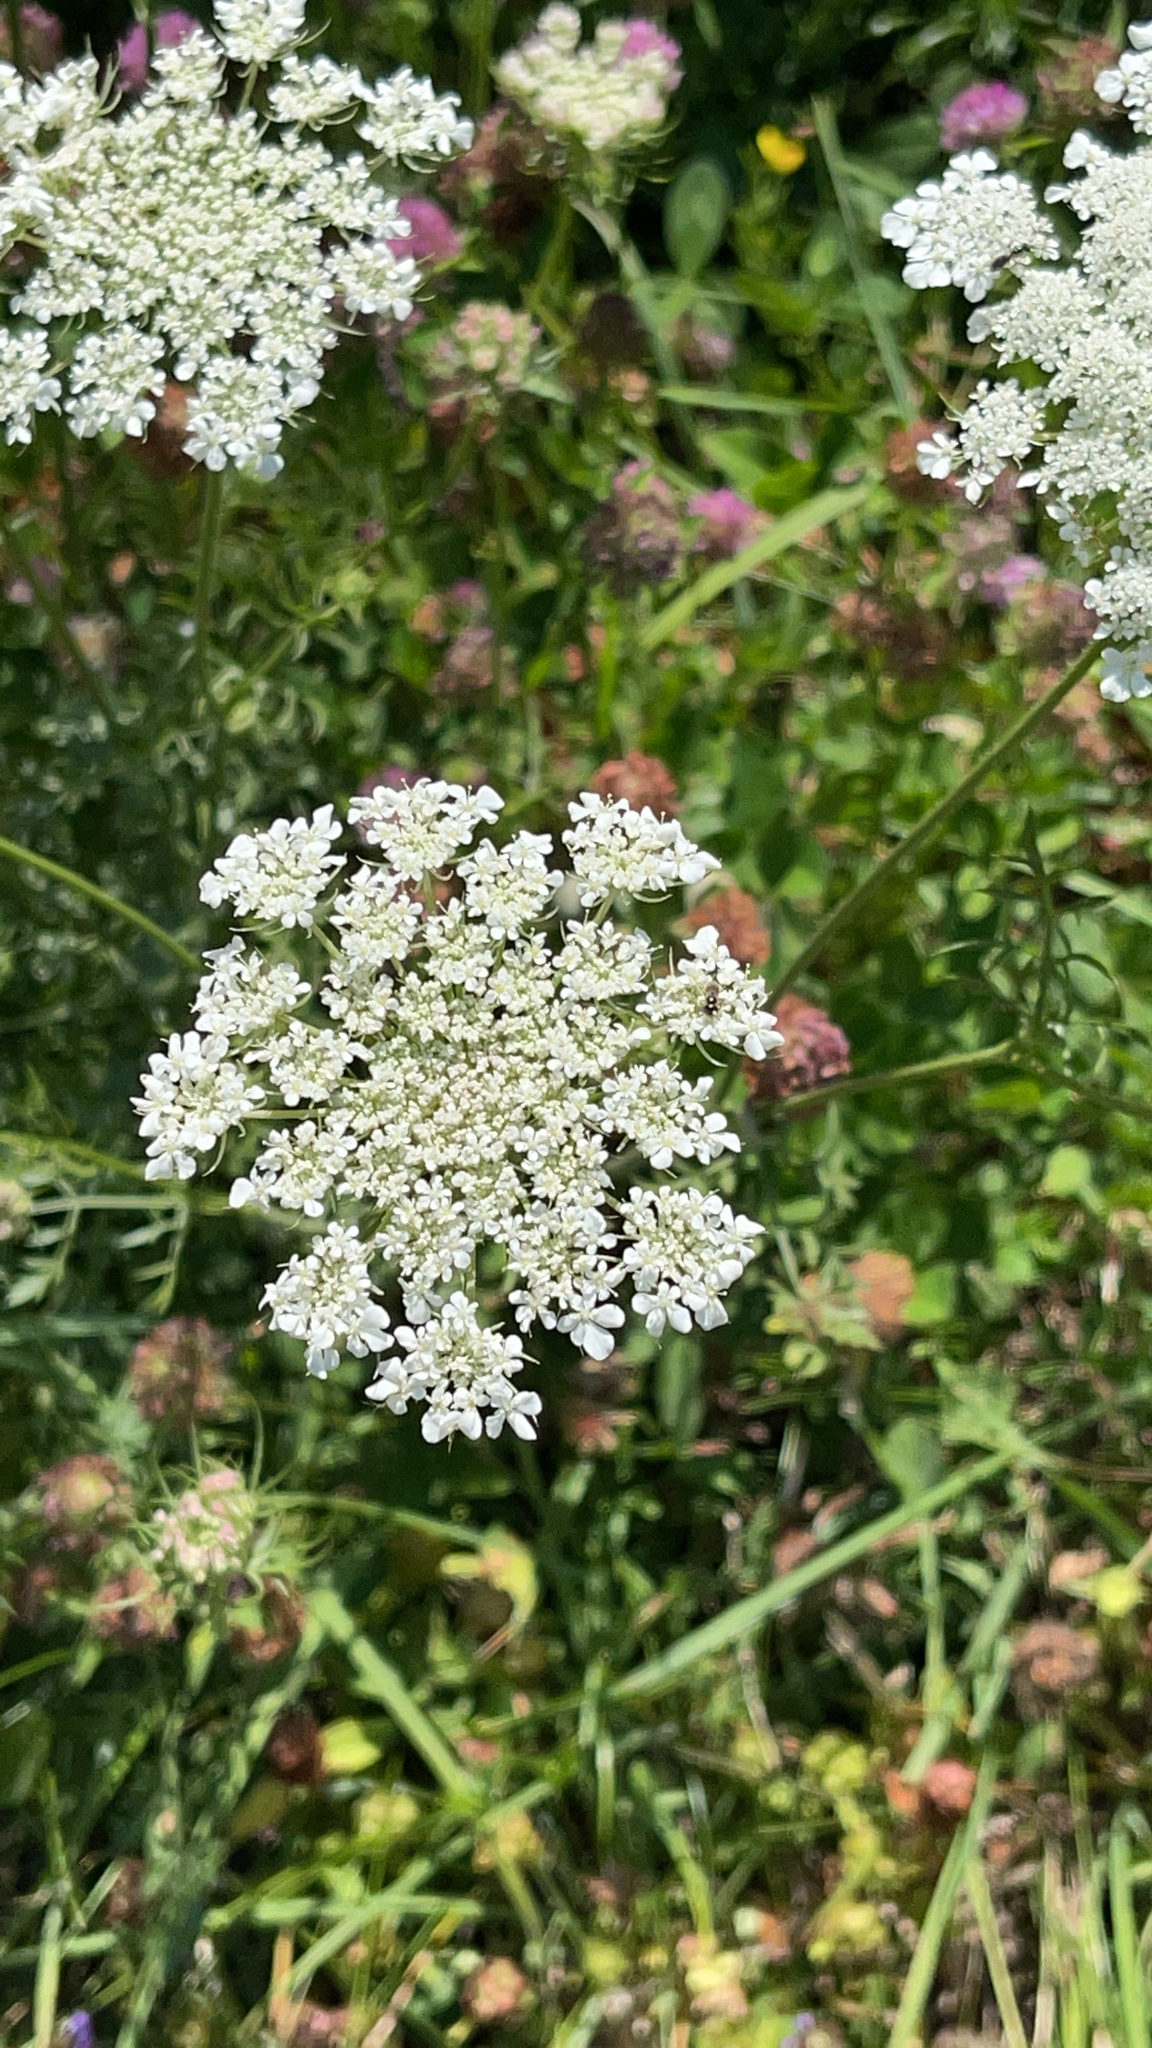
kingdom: Plantae
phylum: Tracheophyta
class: Magnoliopsida
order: Apiales
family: Apiaceae
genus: Daucus
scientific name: Daucus carota
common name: Wild carrot
